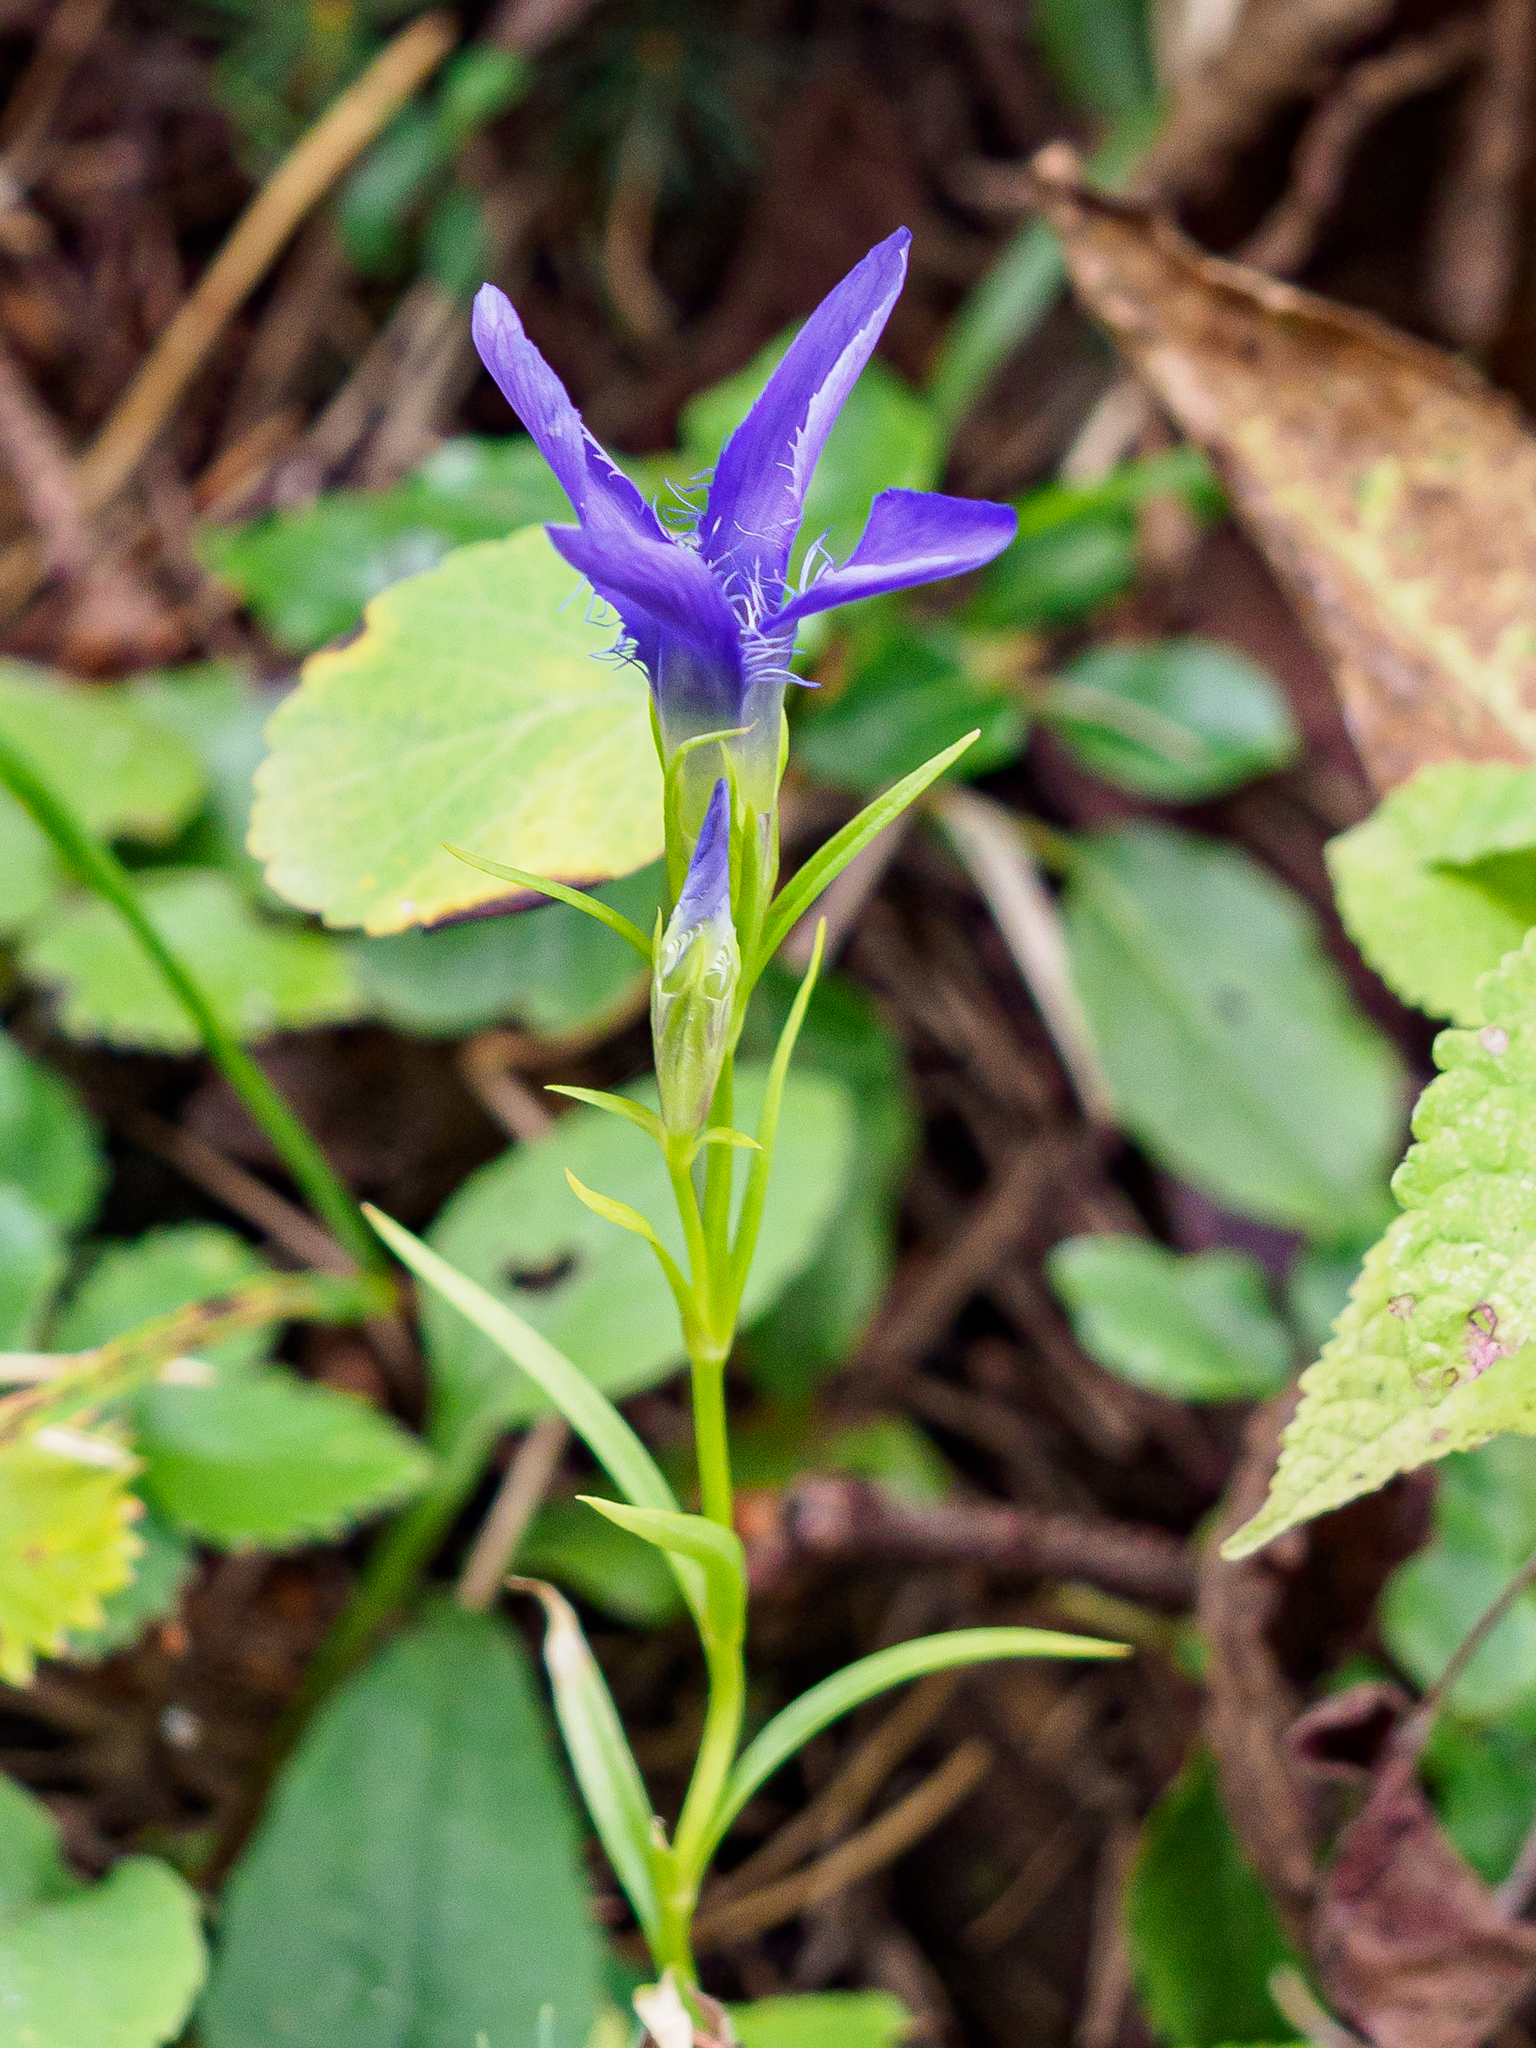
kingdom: Plantae
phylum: Tracheophyta
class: Magnoliopsida
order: Gentianales
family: Gentianaceae
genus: Gentianopsis
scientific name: Gentianopsis ciliata
